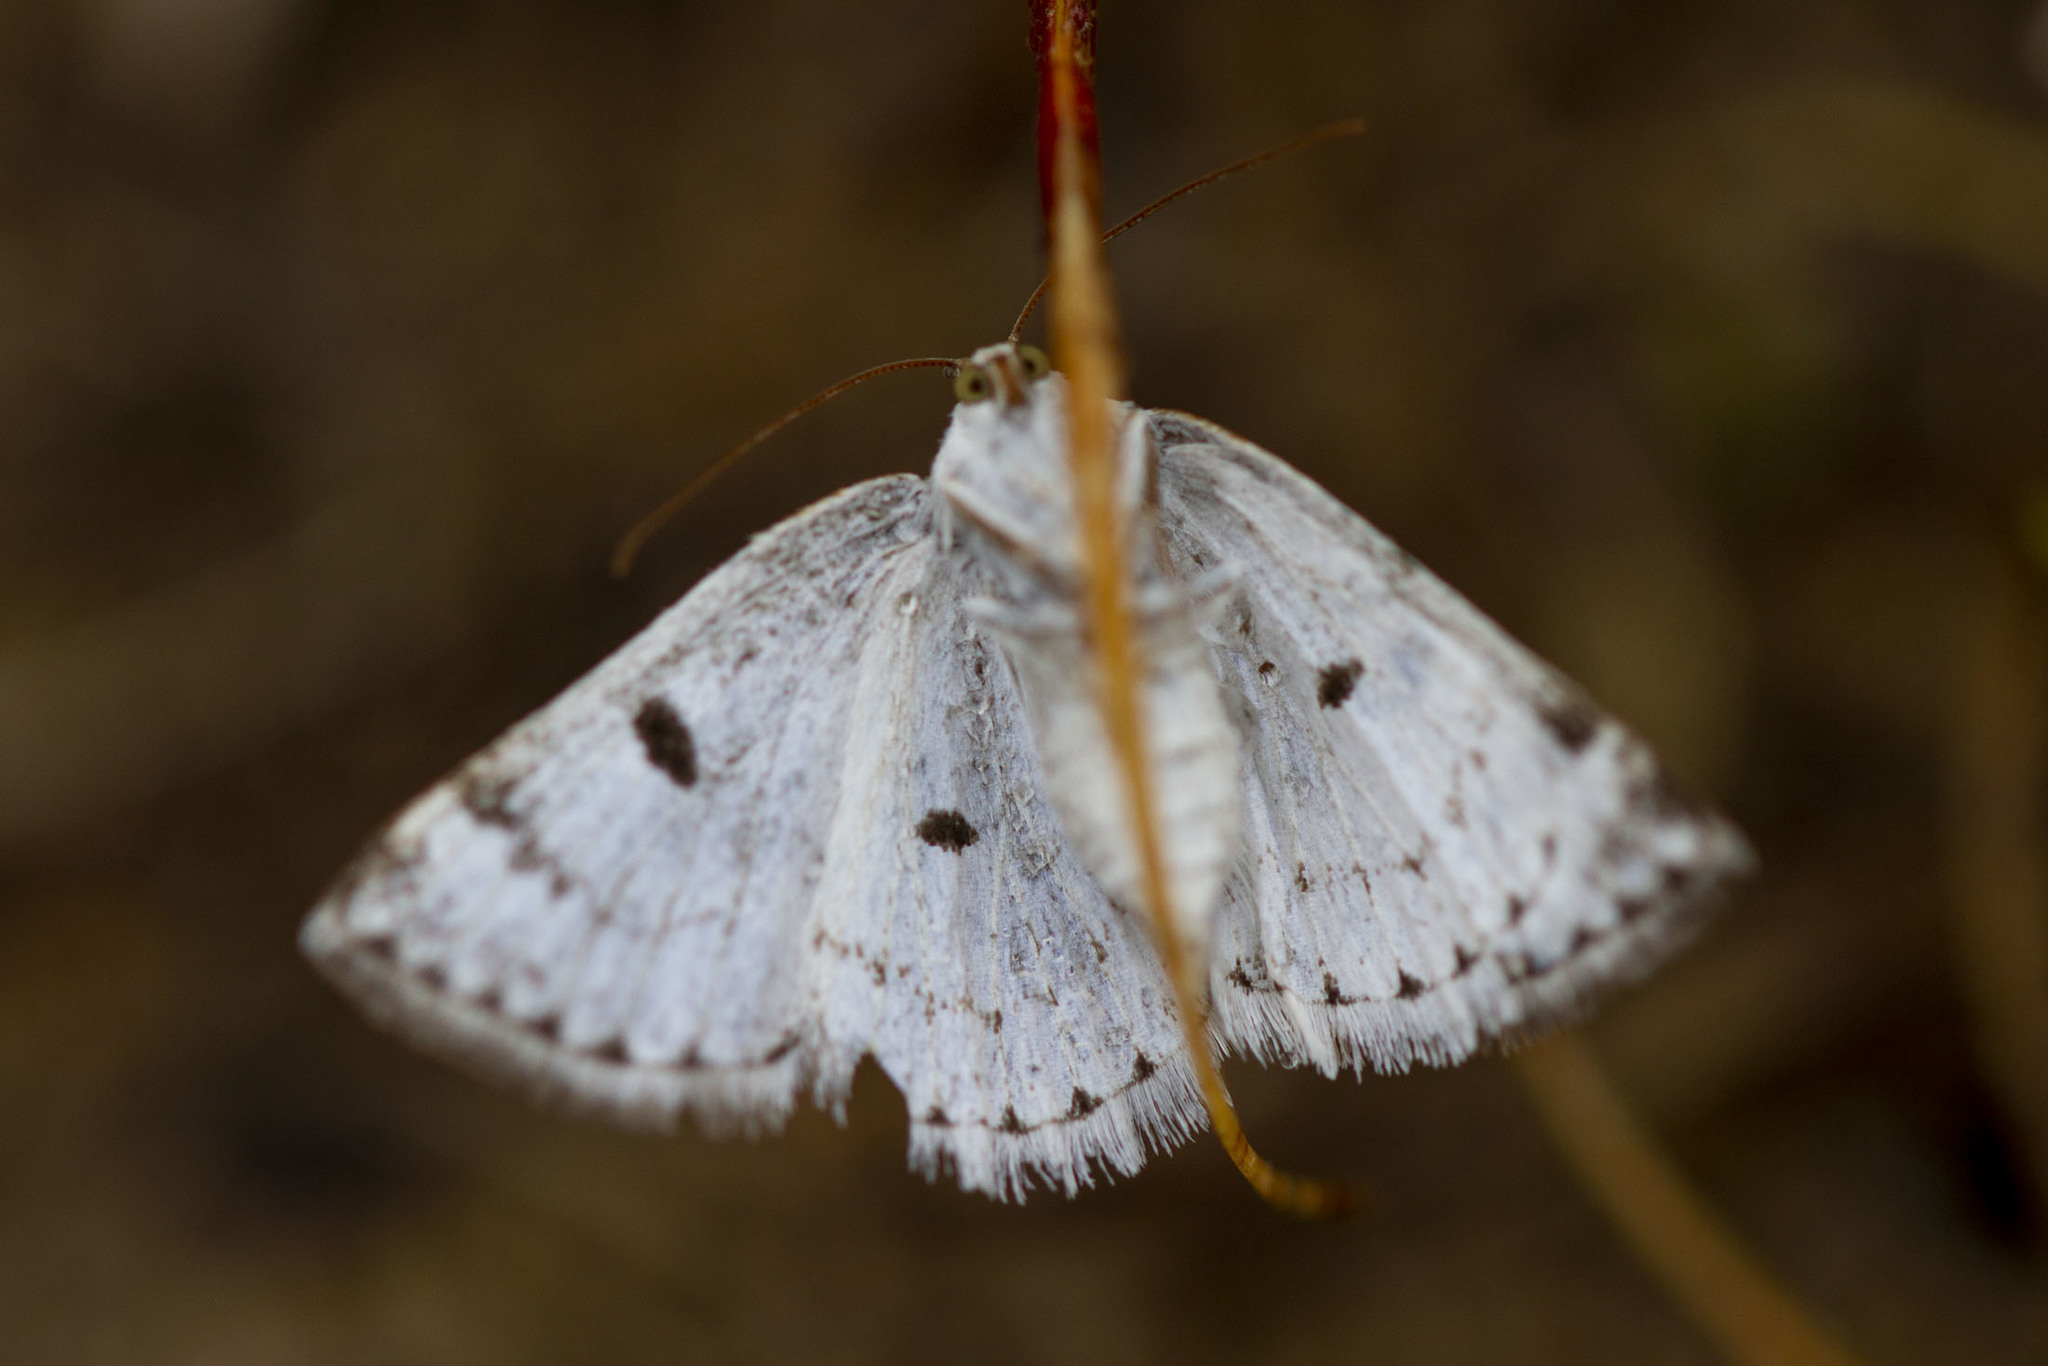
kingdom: Animalia
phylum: Arthropoda
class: Insecta
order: Lepidoptera
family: Geometridae
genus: Lomographa
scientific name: Lomographa semiclarata
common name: Bluish spring moth
